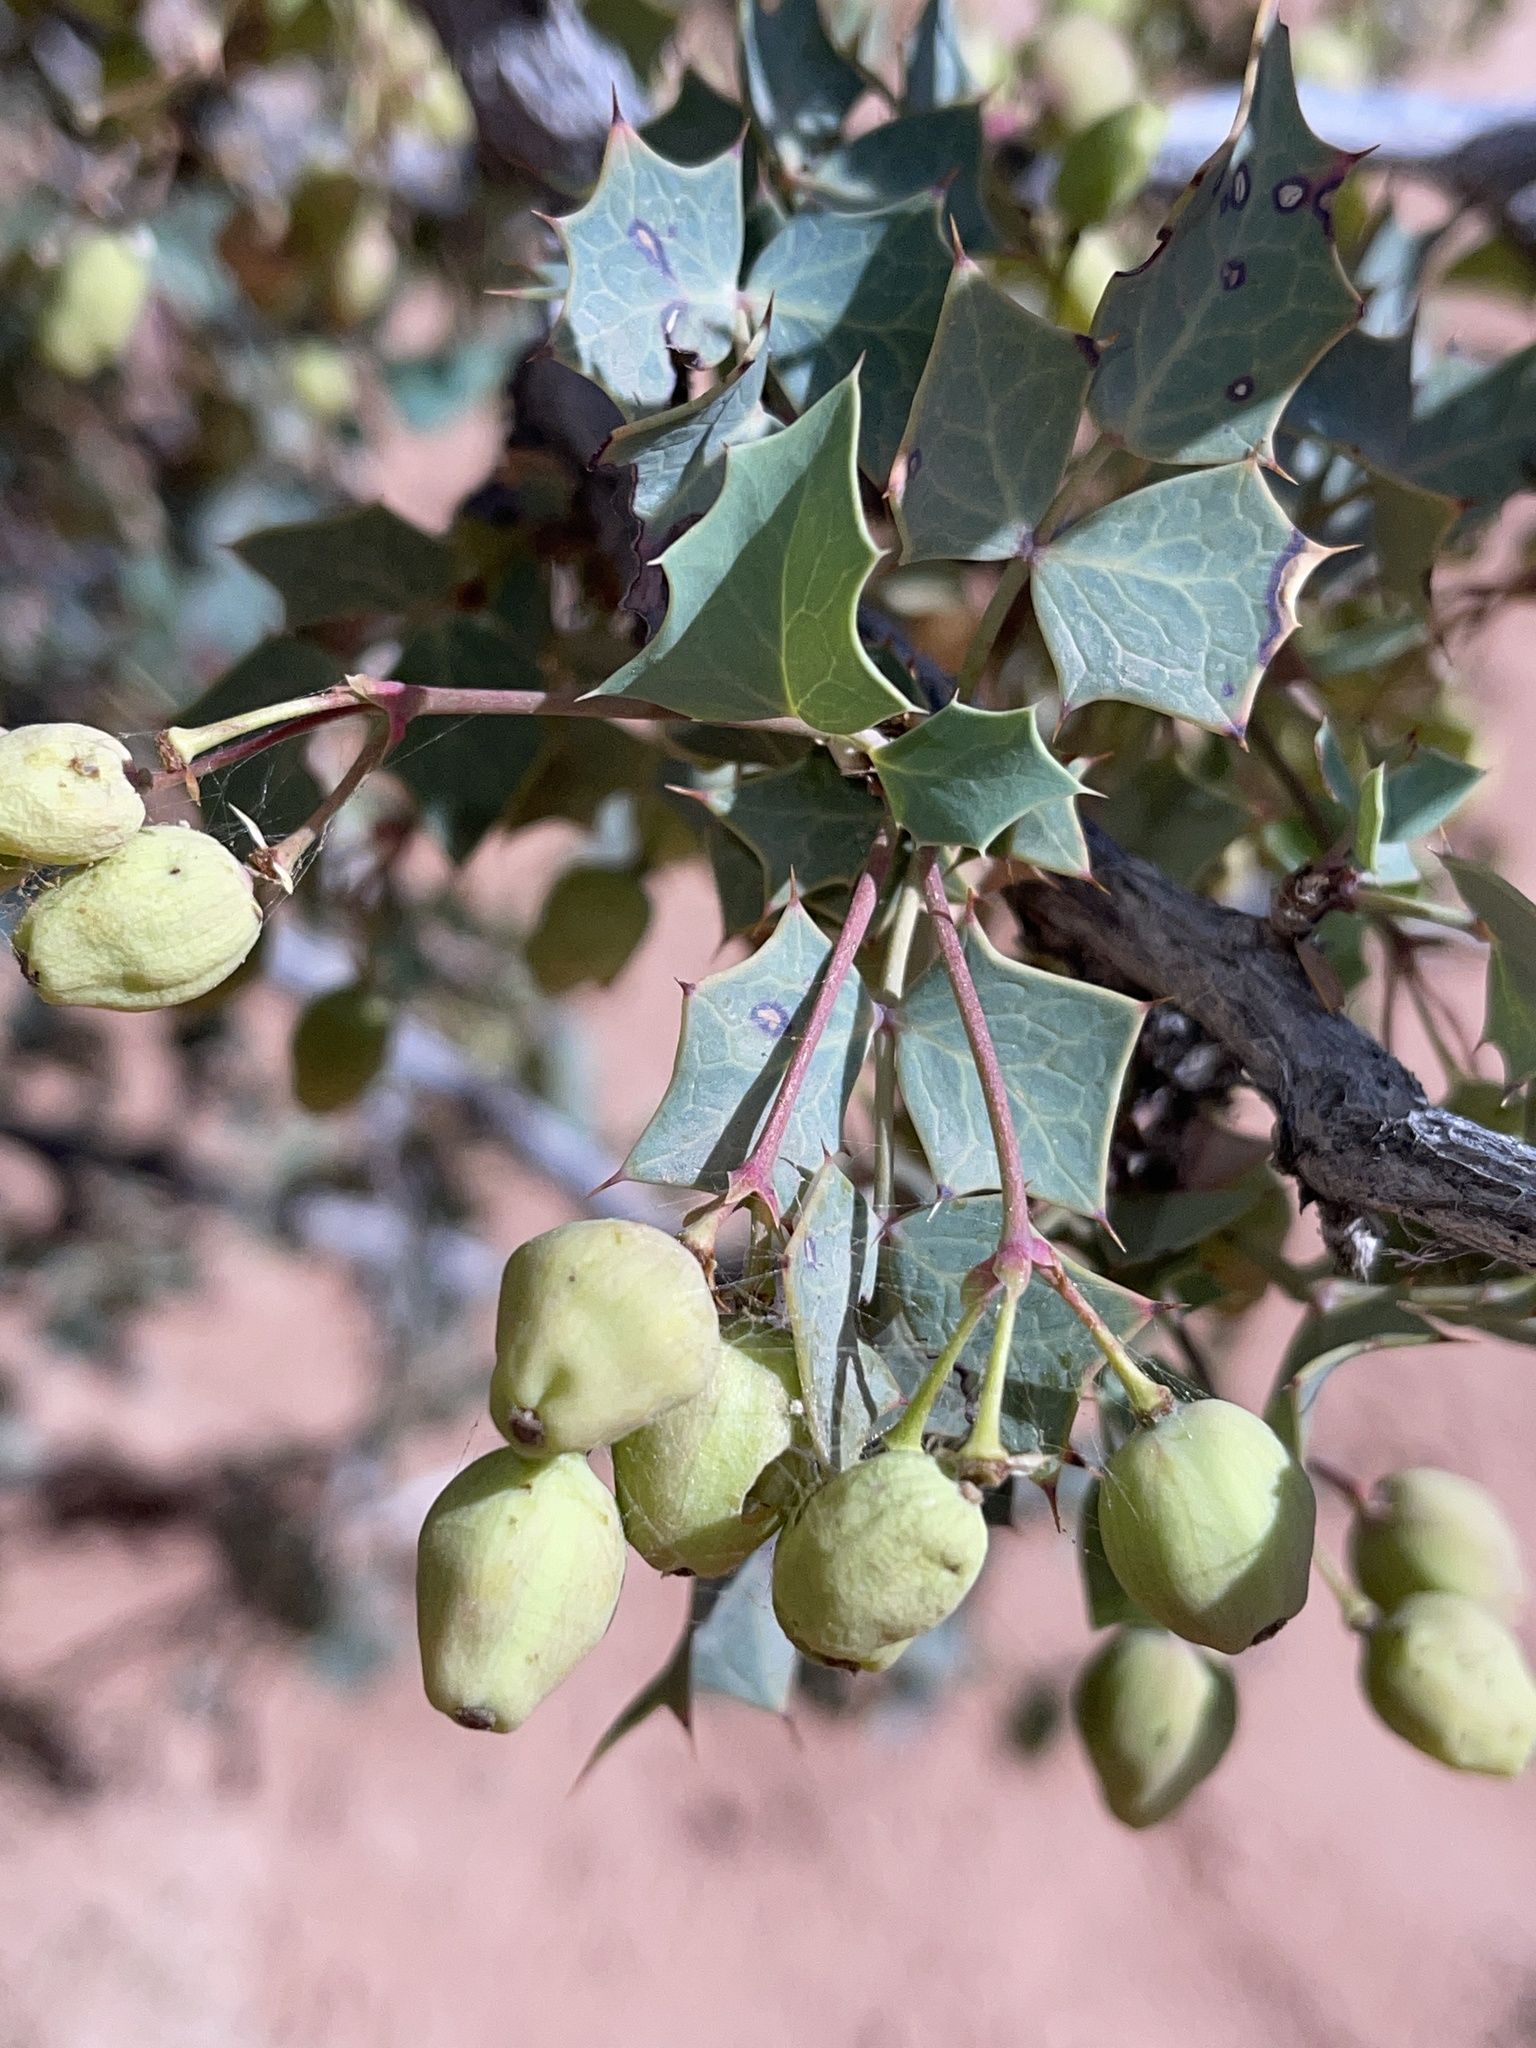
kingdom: Plantae
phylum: Tracheophyta
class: Magnoliopsida
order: Ranunculales
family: Berberidaceae
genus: Alloberberis
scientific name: Alloberberis fremontii
